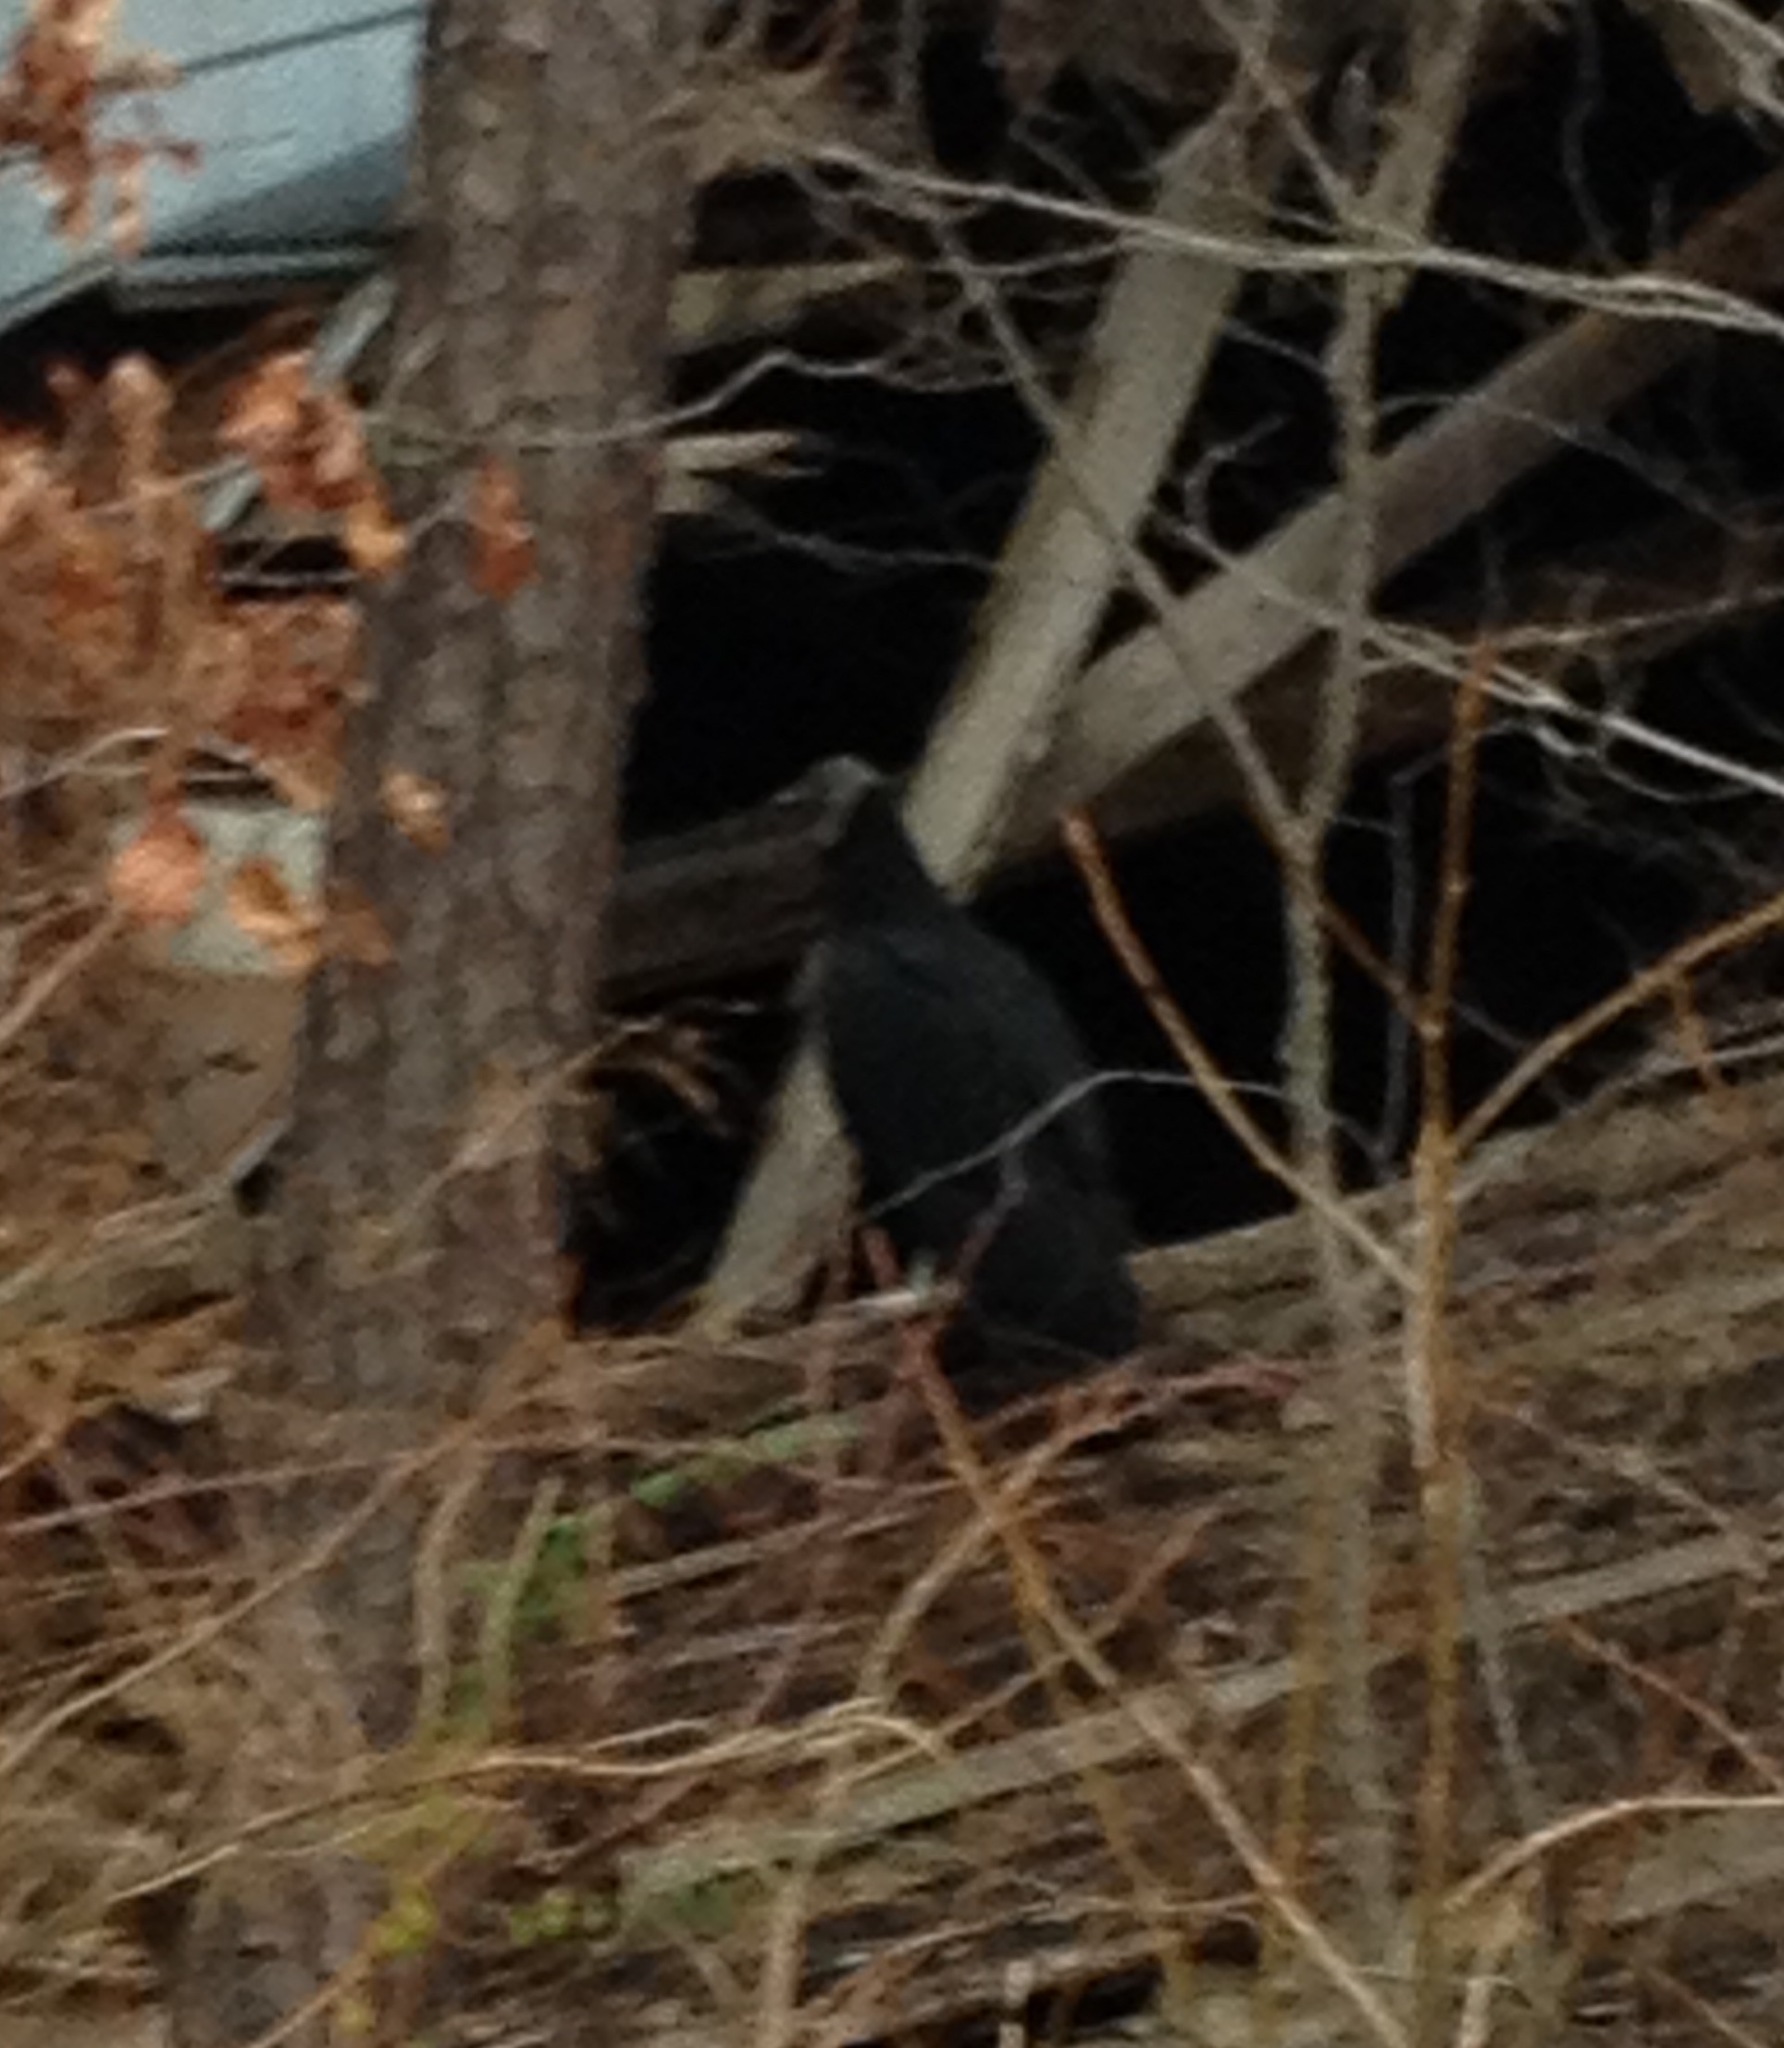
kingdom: Animalia
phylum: Chordata
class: Aves
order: Accipitriformes
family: Cathartidae
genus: Coragyps
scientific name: Coragyps atratus
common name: Black vulture
